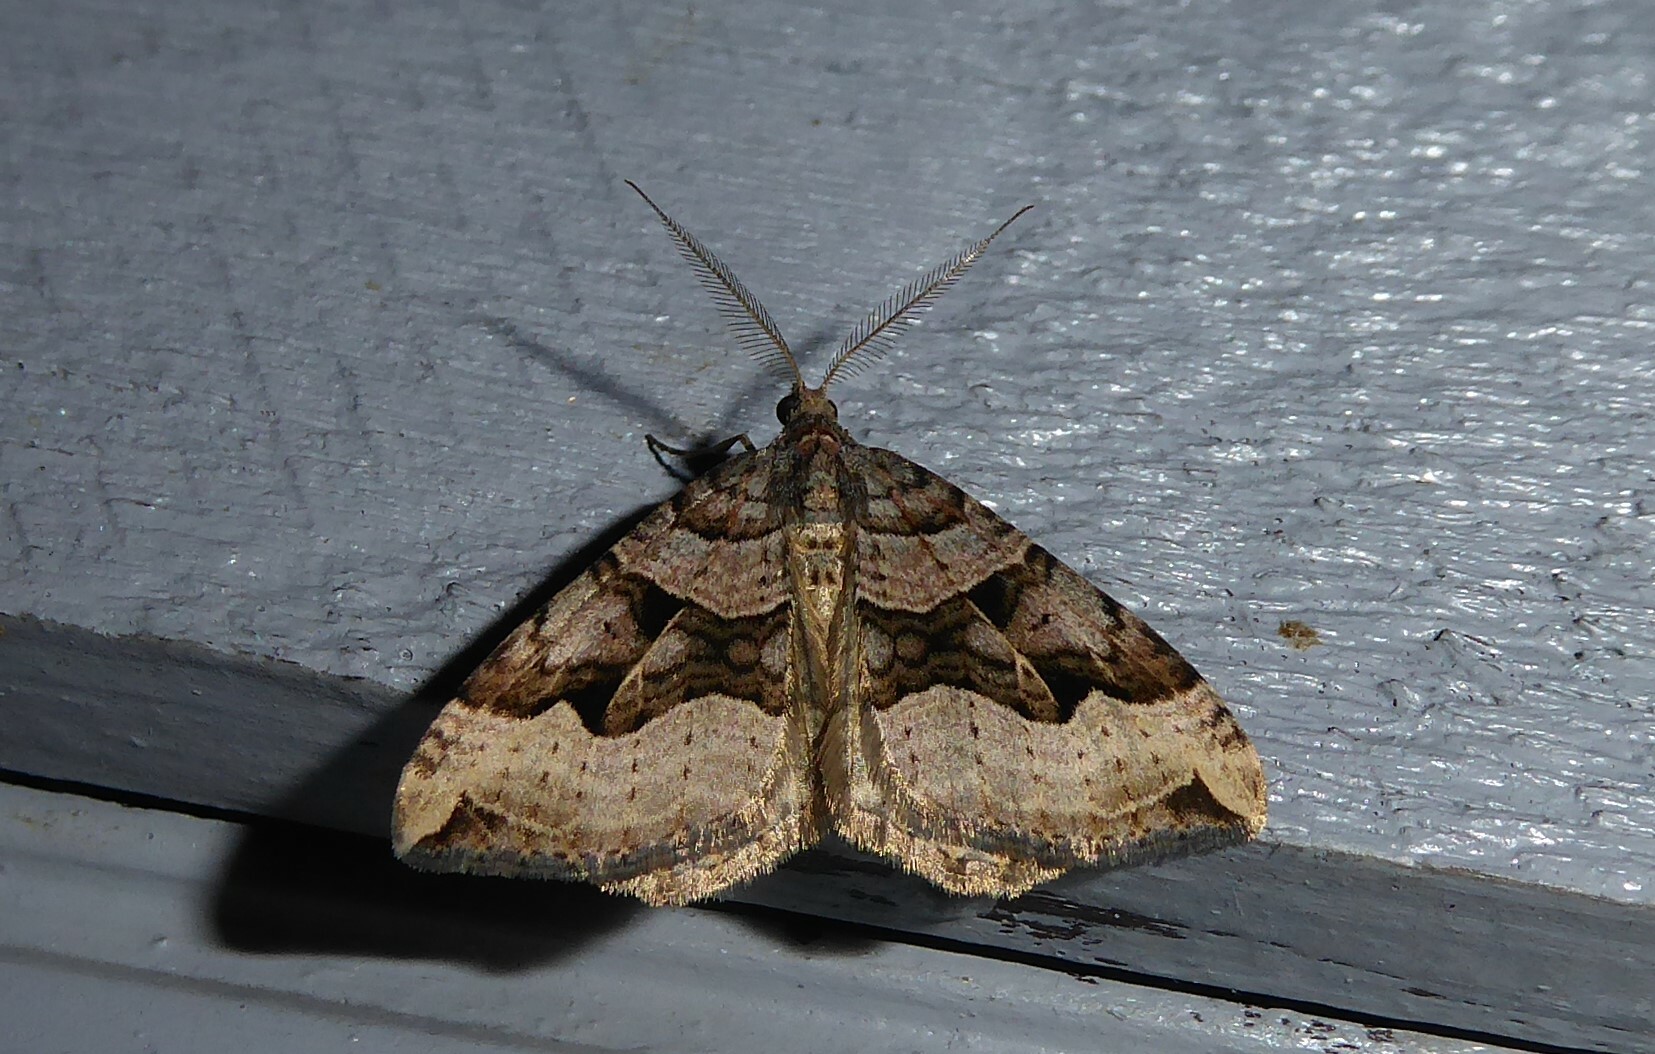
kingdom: Animalia
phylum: Arthropoda
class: Insecta
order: Lepidoptera
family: Geometridae
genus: Xanthorhoe
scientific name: Xanthorhoe semifissata
